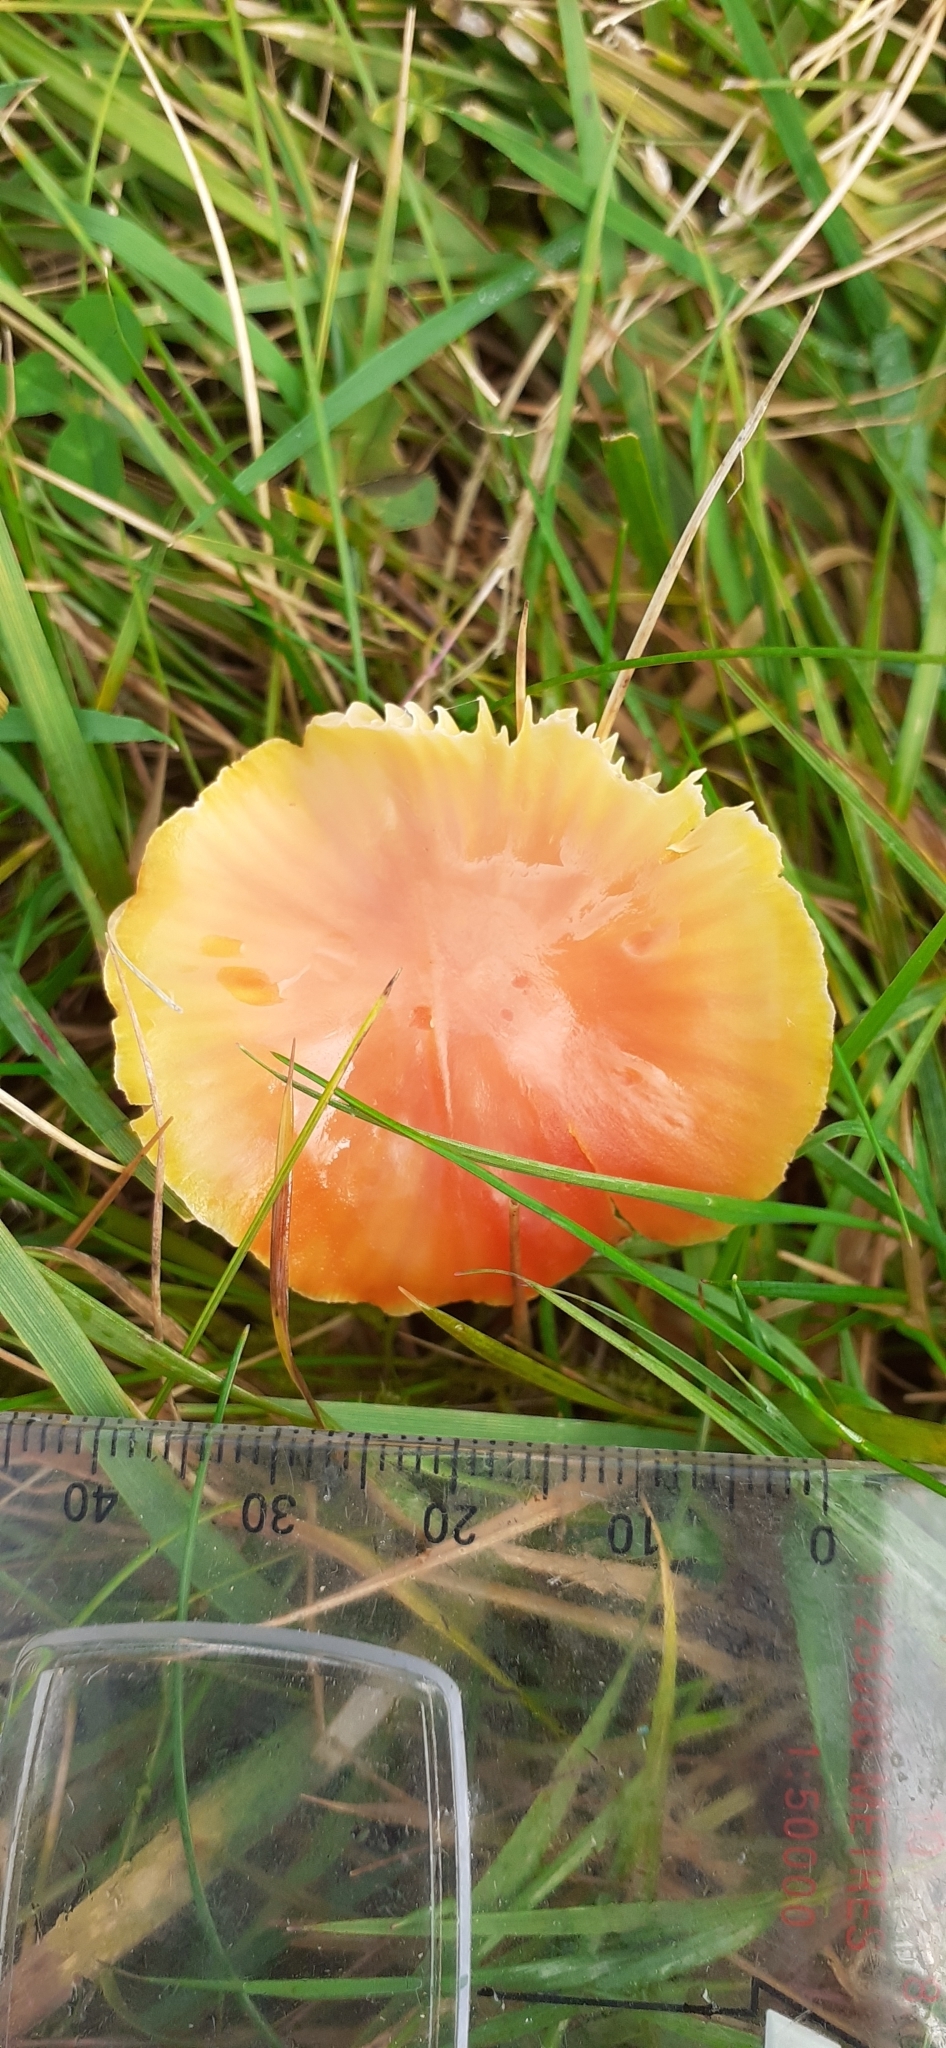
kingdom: Fungi
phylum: Basidiomycota
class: Agaricomycetes
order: Agaricales
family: Hygrophoraceae
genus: Hygrocybe
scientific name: Hygrocybe mucronella
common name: Bitter waxcap
